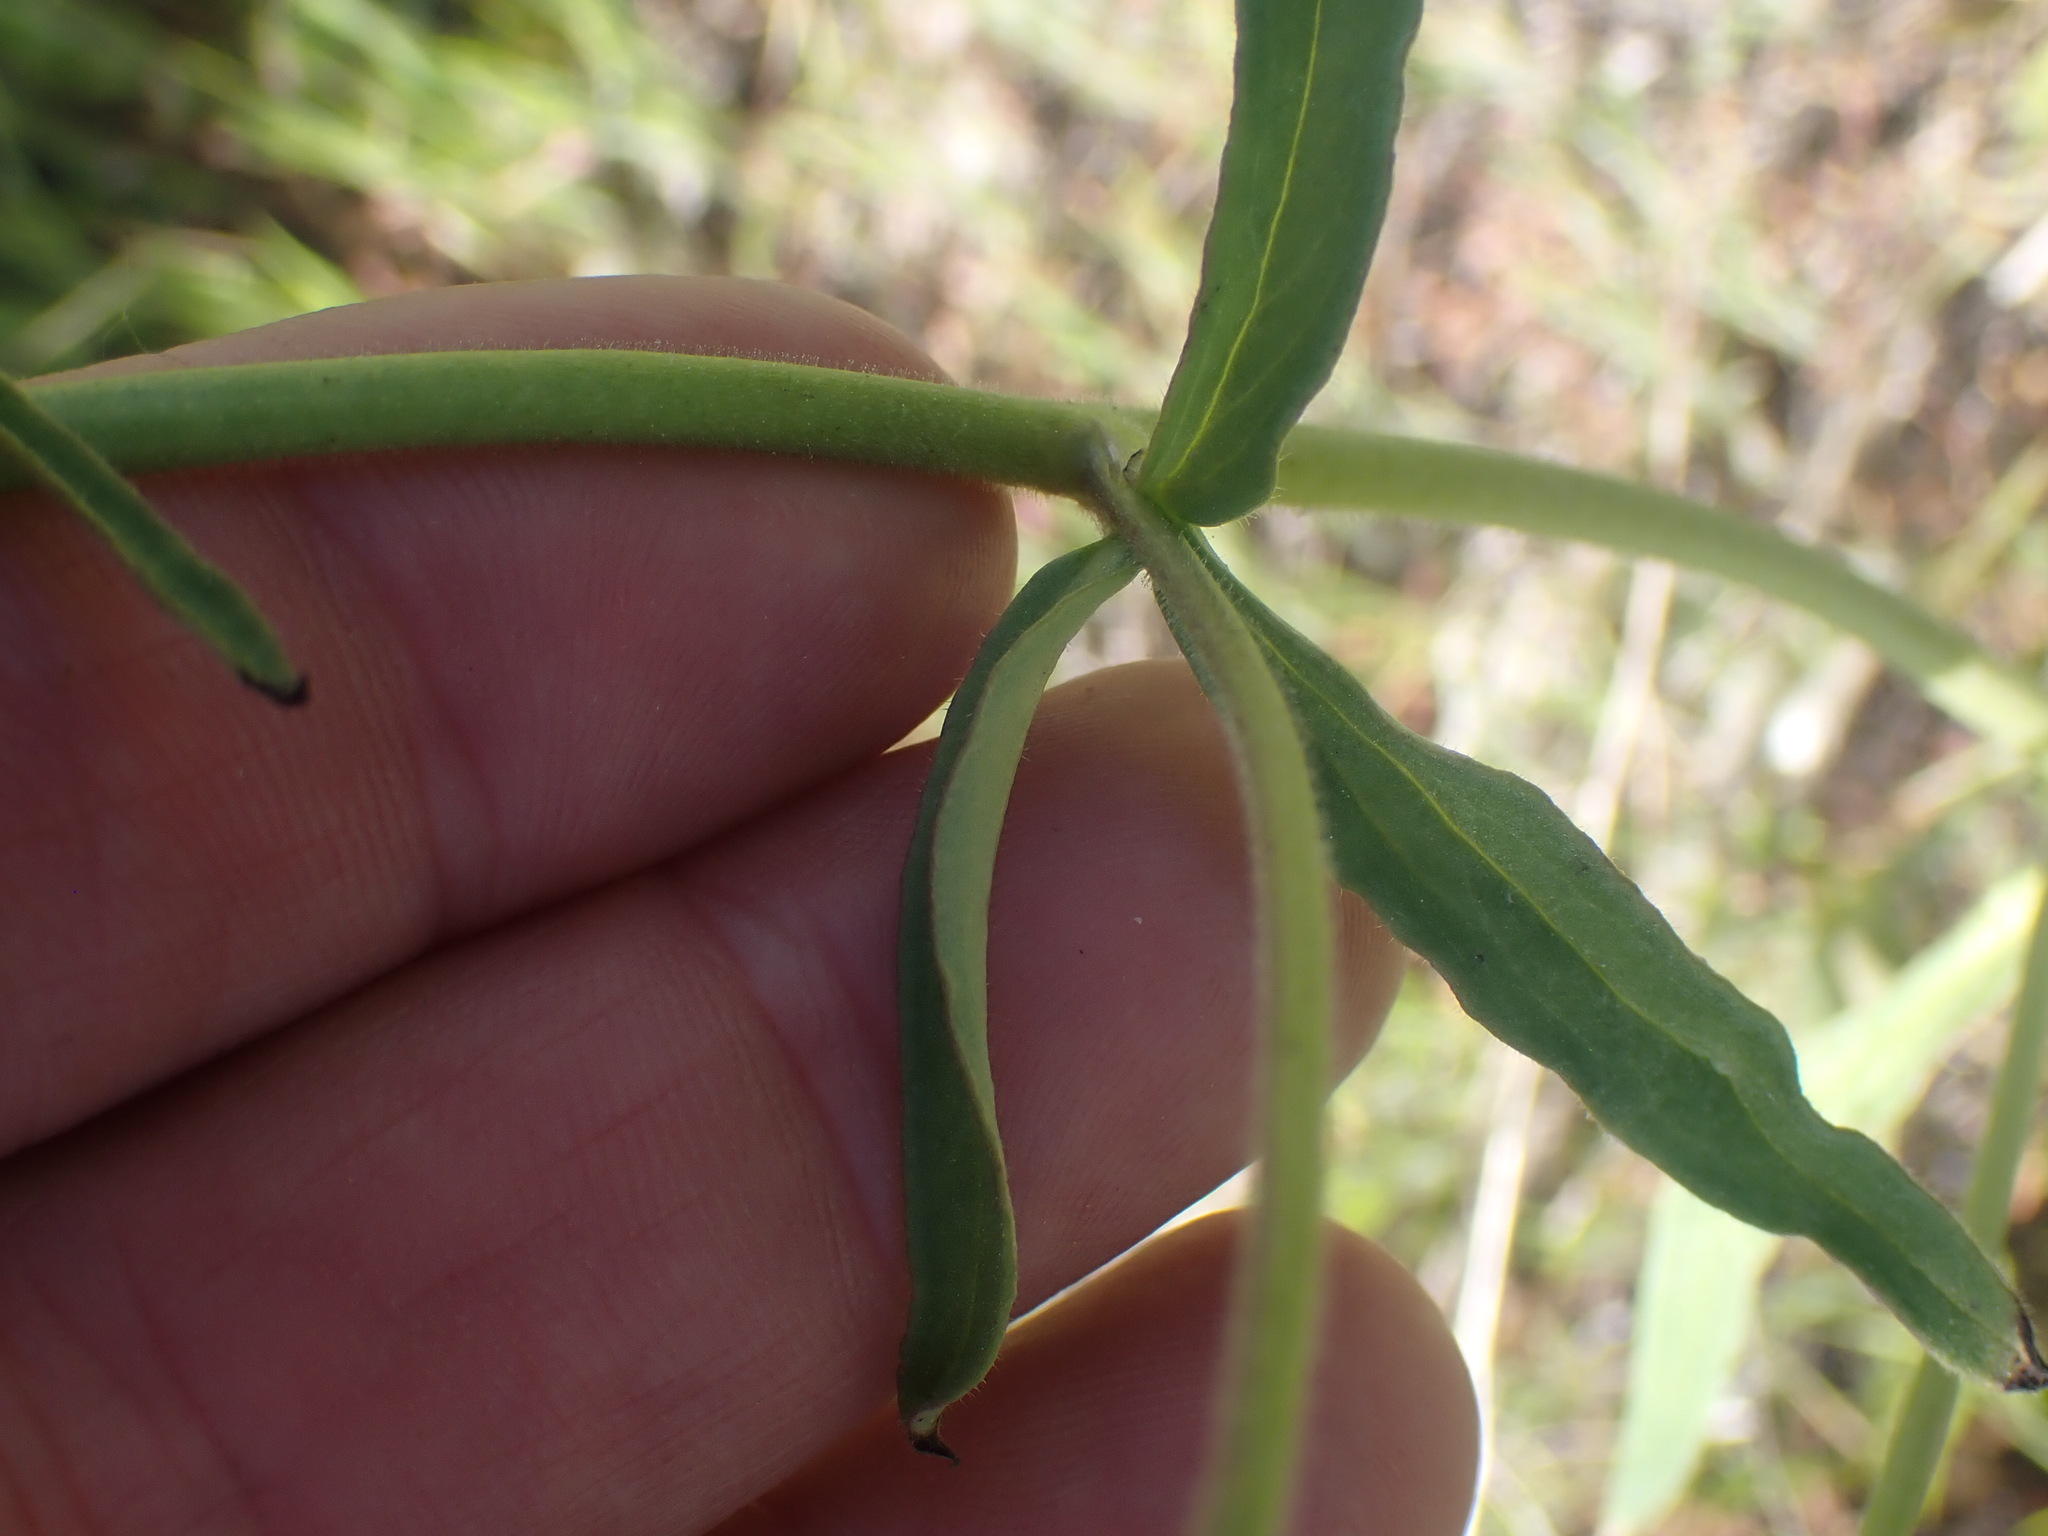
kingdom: Plantae
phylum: Tracheophyta
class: Magnoliopsida
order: Ranunculales
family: Ranunculaceae
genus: Delphinium
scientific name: Delphinium nuttallianum
